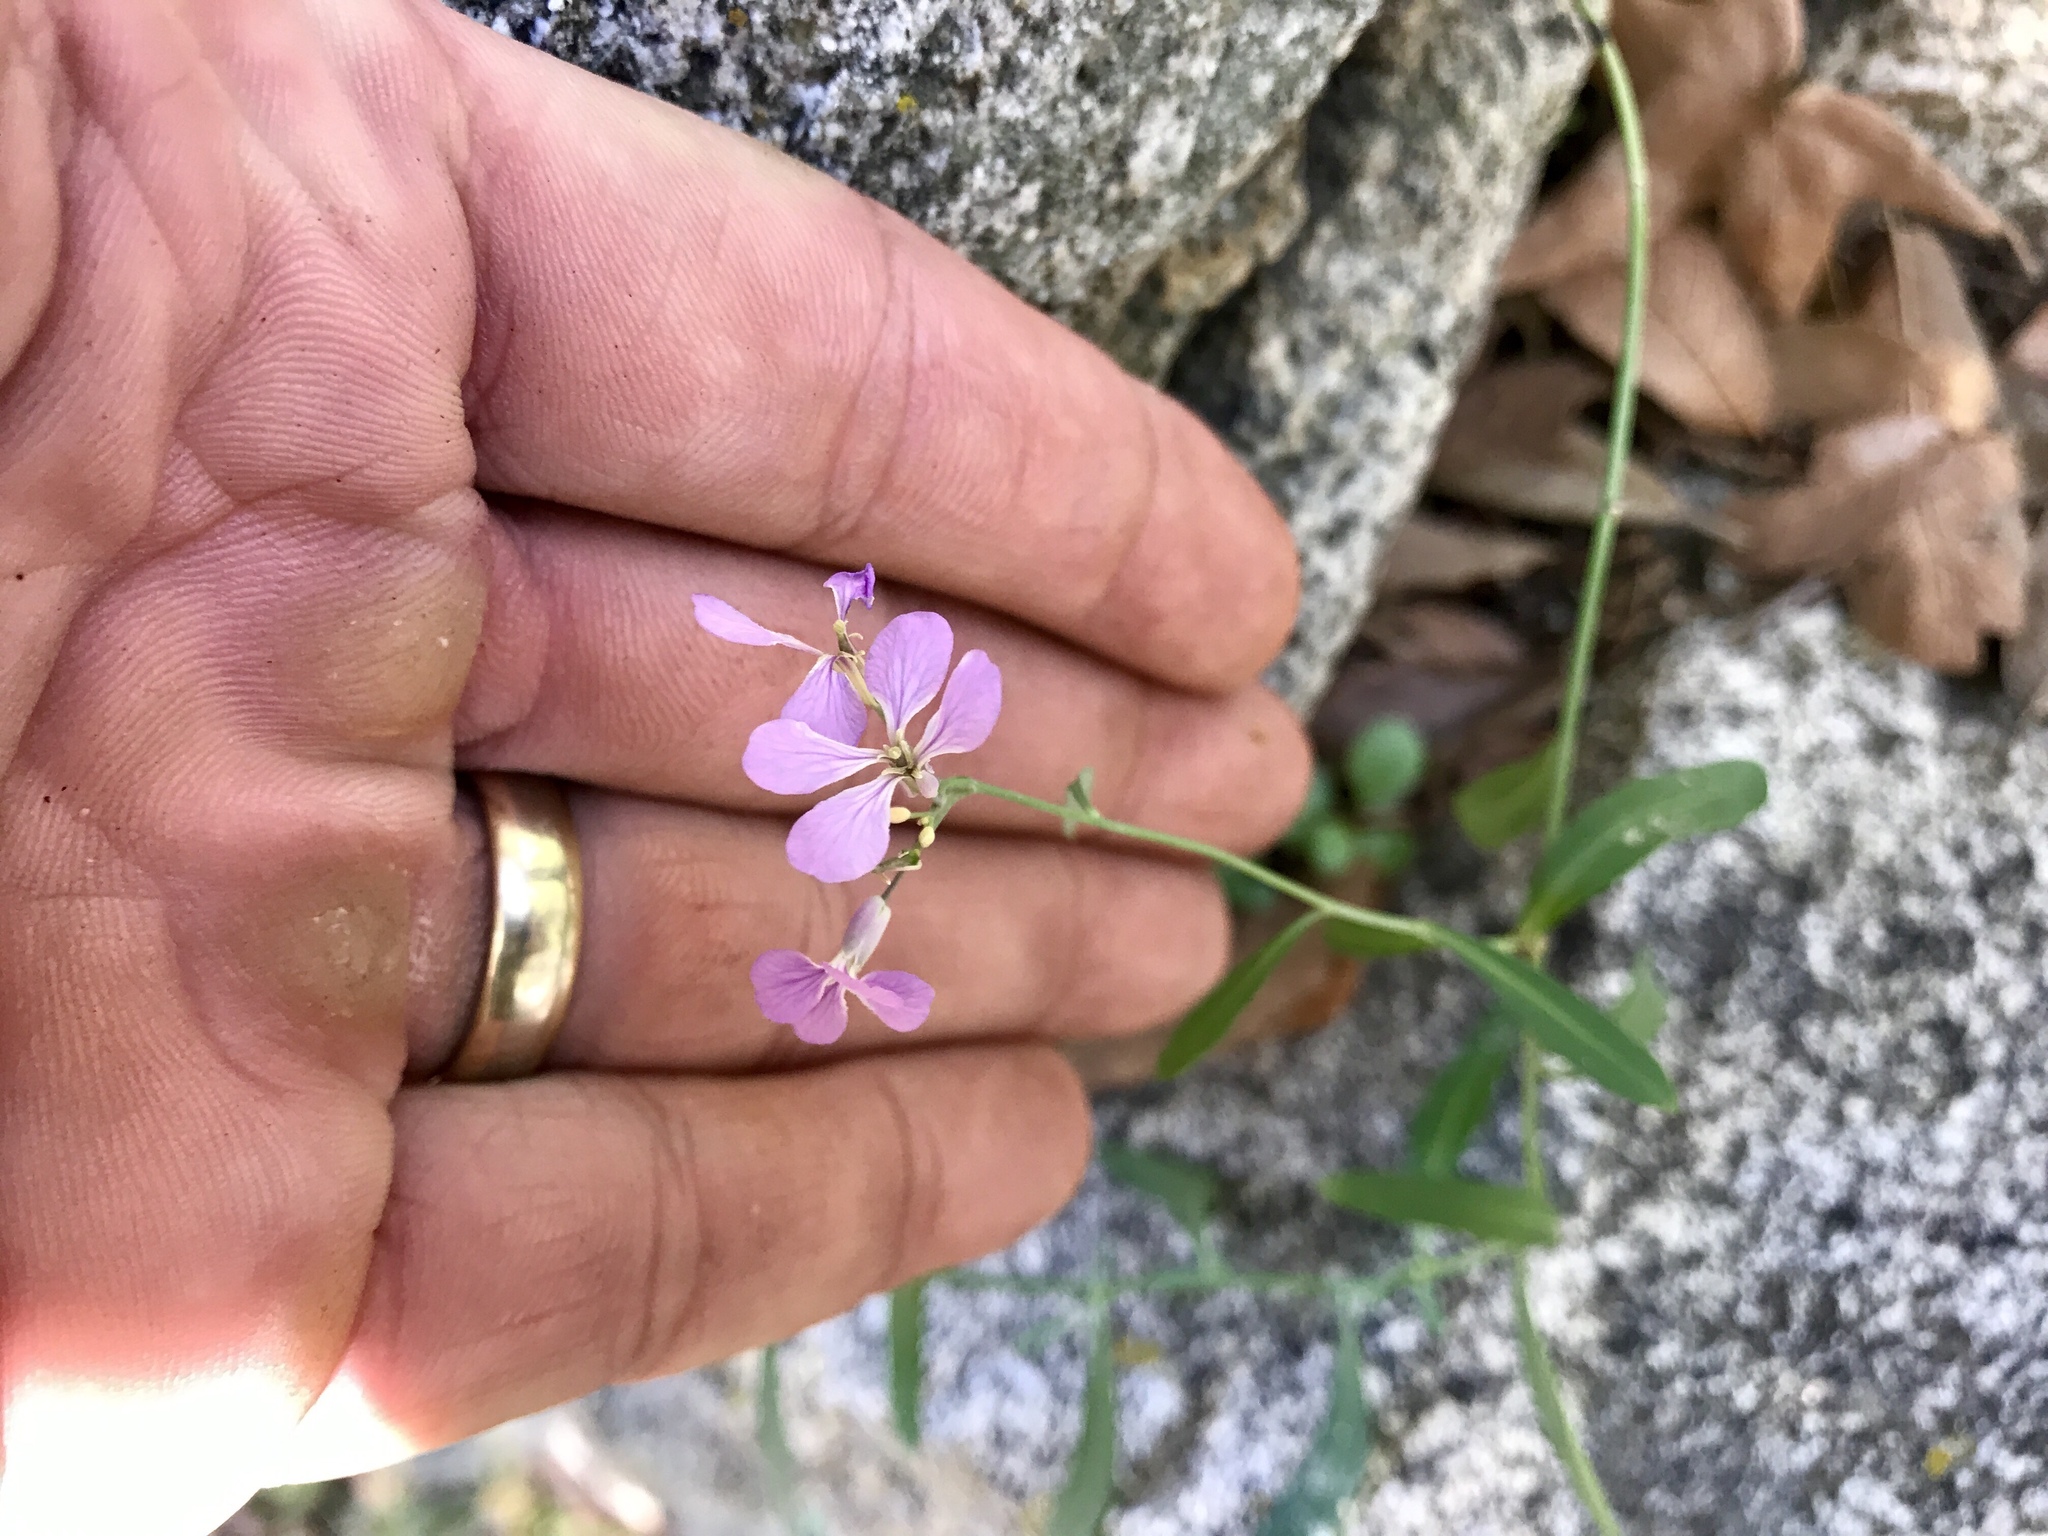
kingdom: Plantae
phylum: Tracheophyta
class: Magnoliopsida
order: Brassicales
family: Brassicaceae
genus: Hesperidanthus
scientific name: Hesperidanthus linearifolius
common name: Slim-leaf plains mustard
